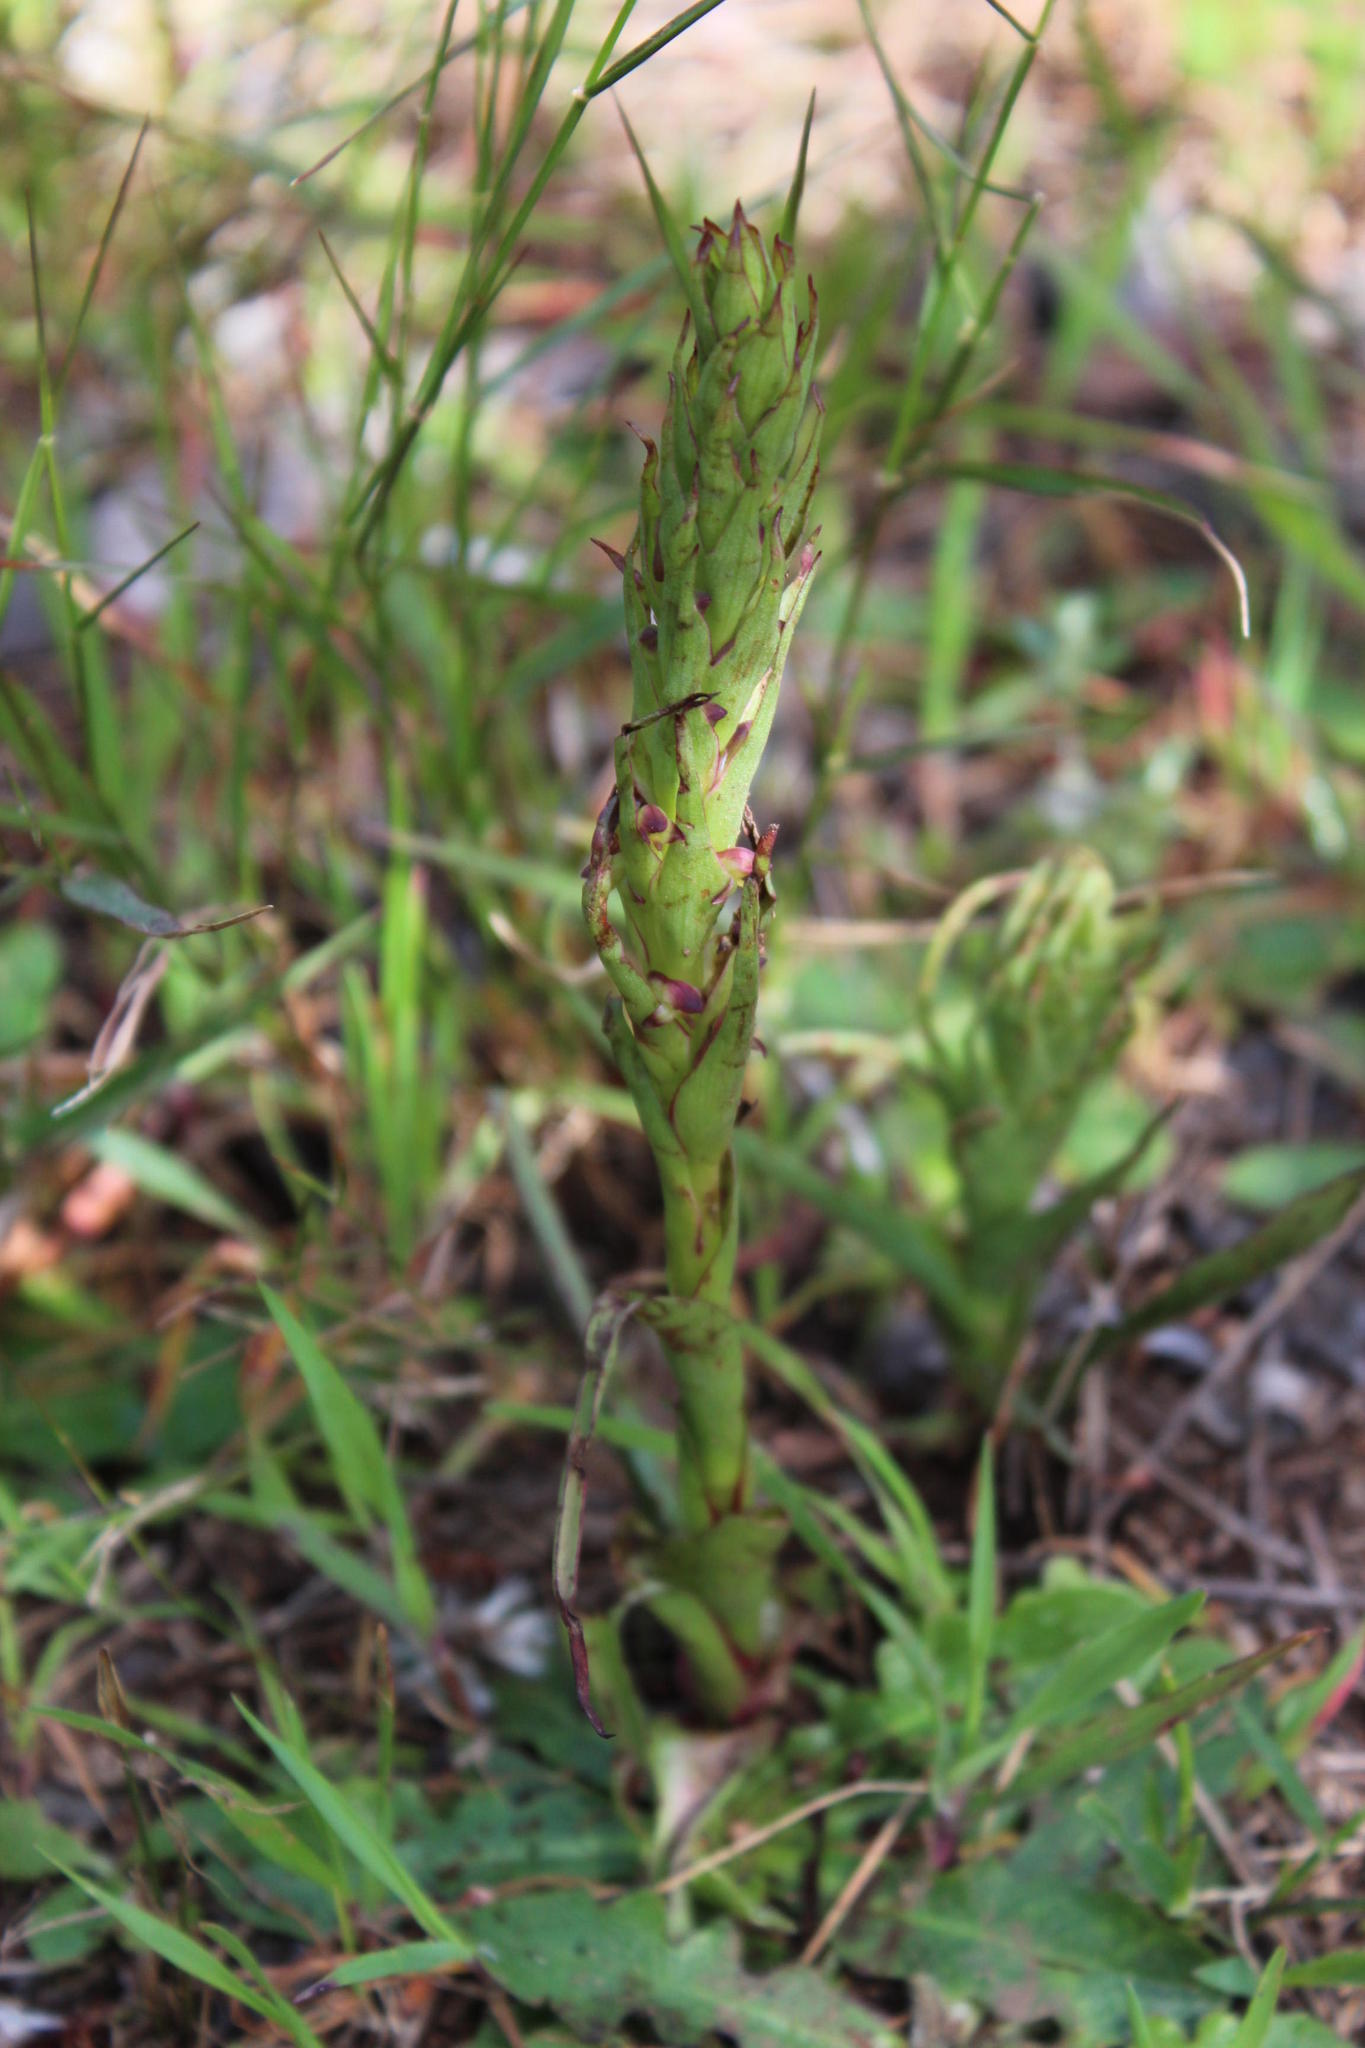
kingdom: Plantae
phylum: Tracheophyta
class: Liliopsida
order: Asparagales
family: Orchidaceae
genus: Disa
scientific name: Disa bracteata
